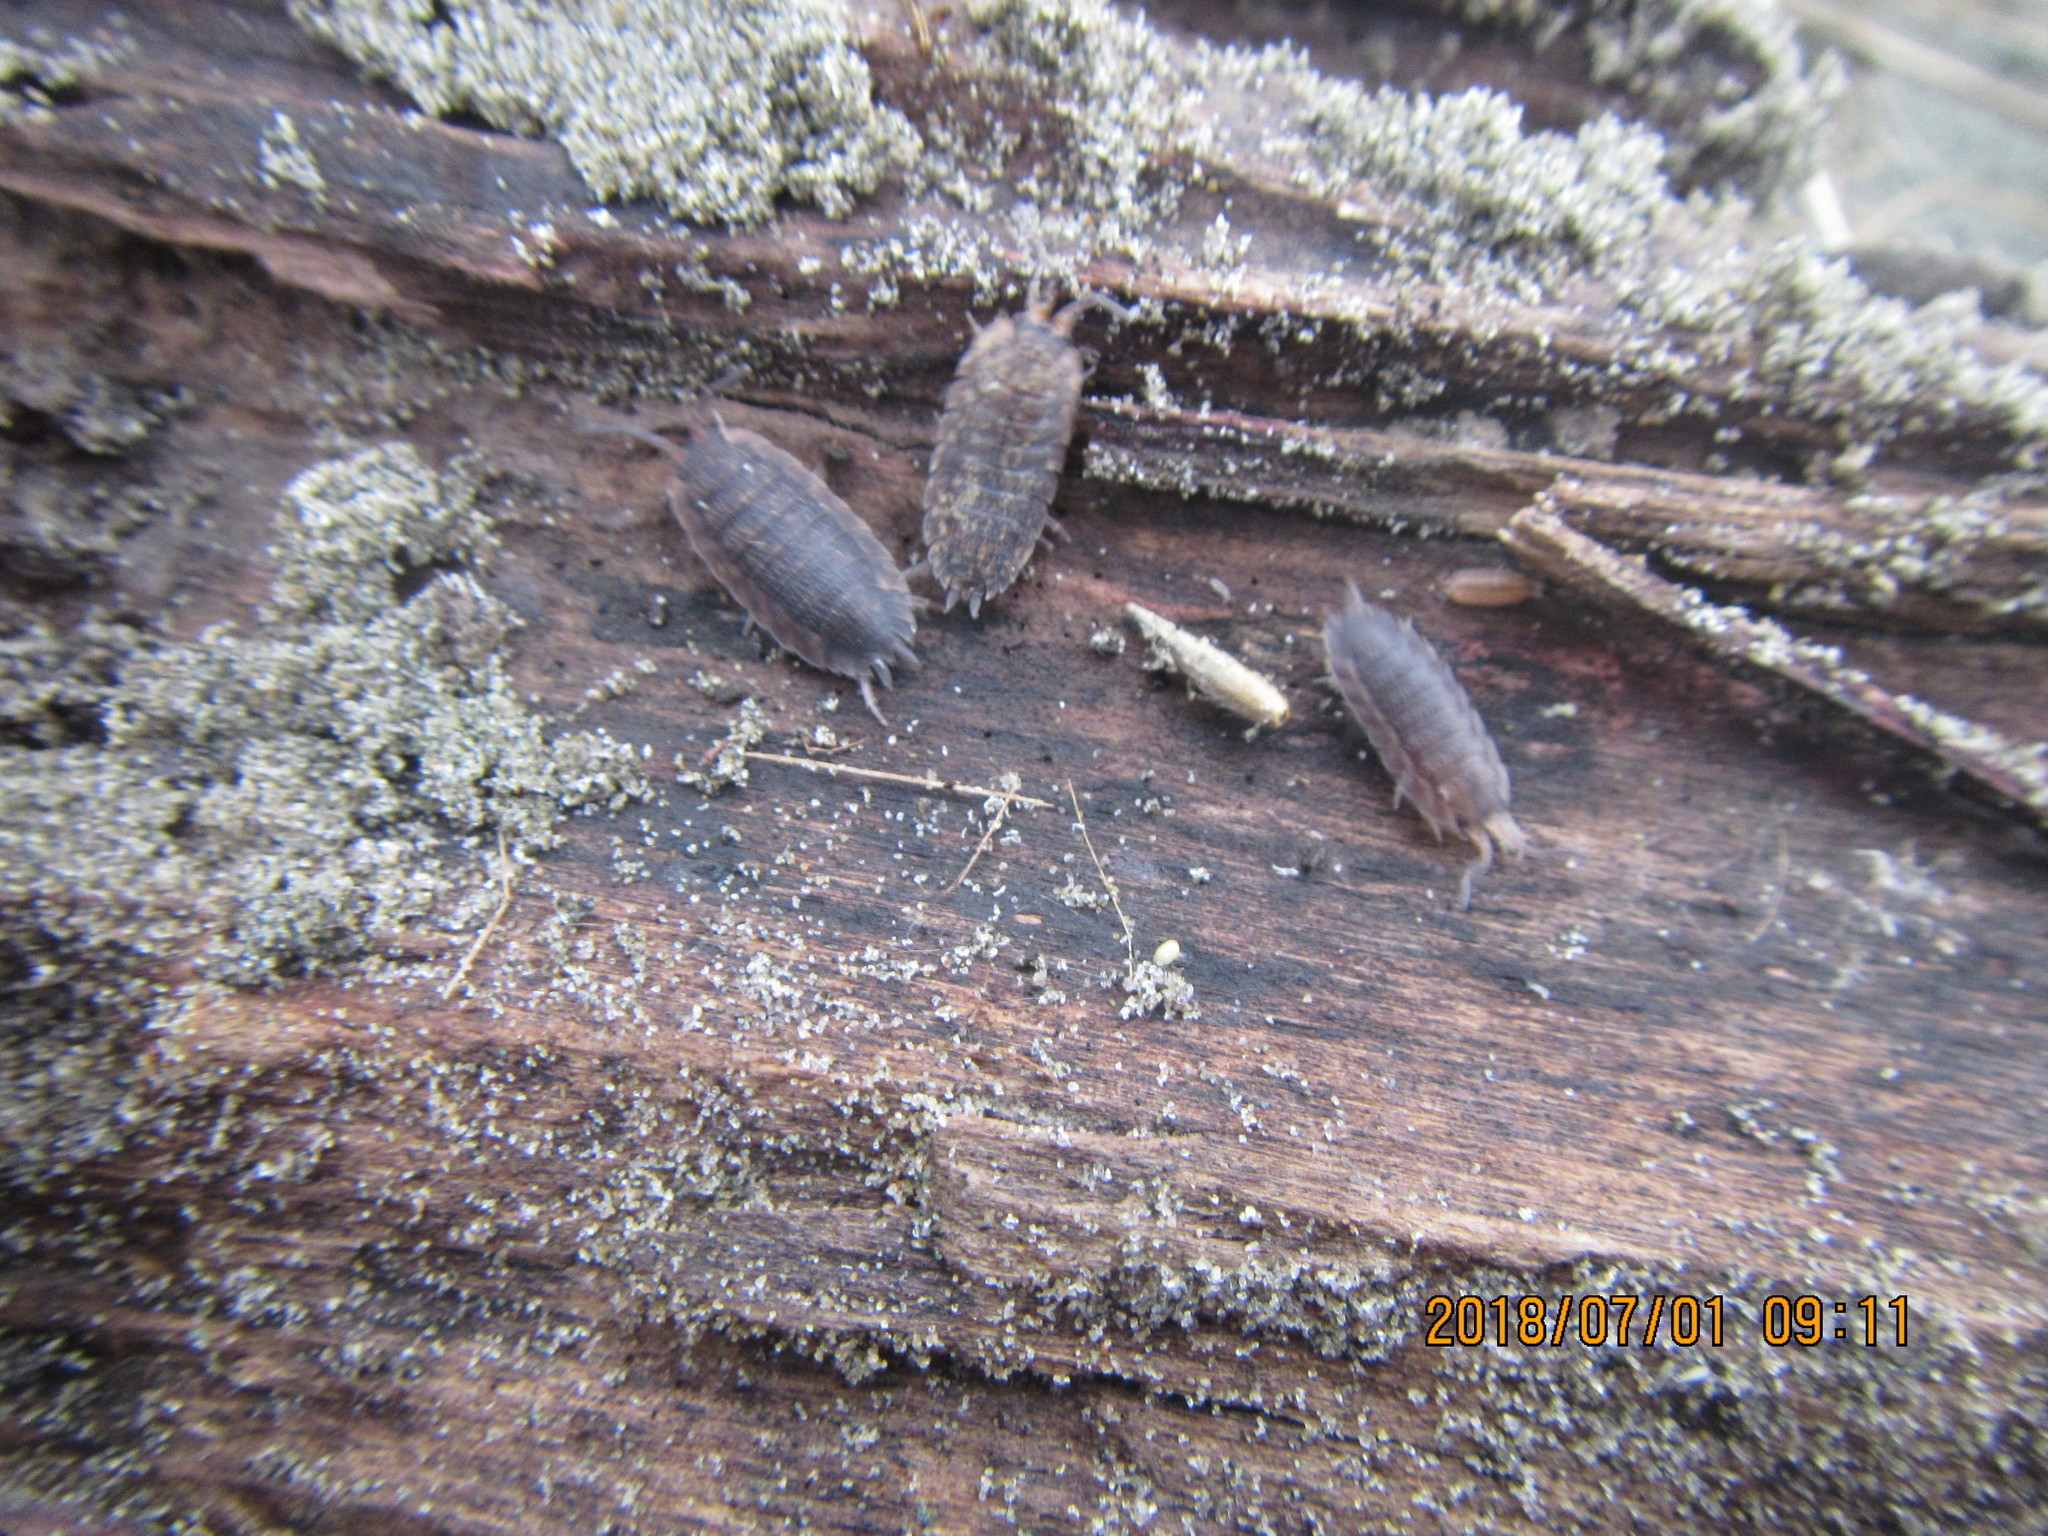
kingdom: Animalia
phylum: Arthropoda
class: Malacostraca
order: Isopoda
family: Porcellionidae
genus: Porcellio
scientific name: Porcellio scaber
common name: Common rough woodlouse
